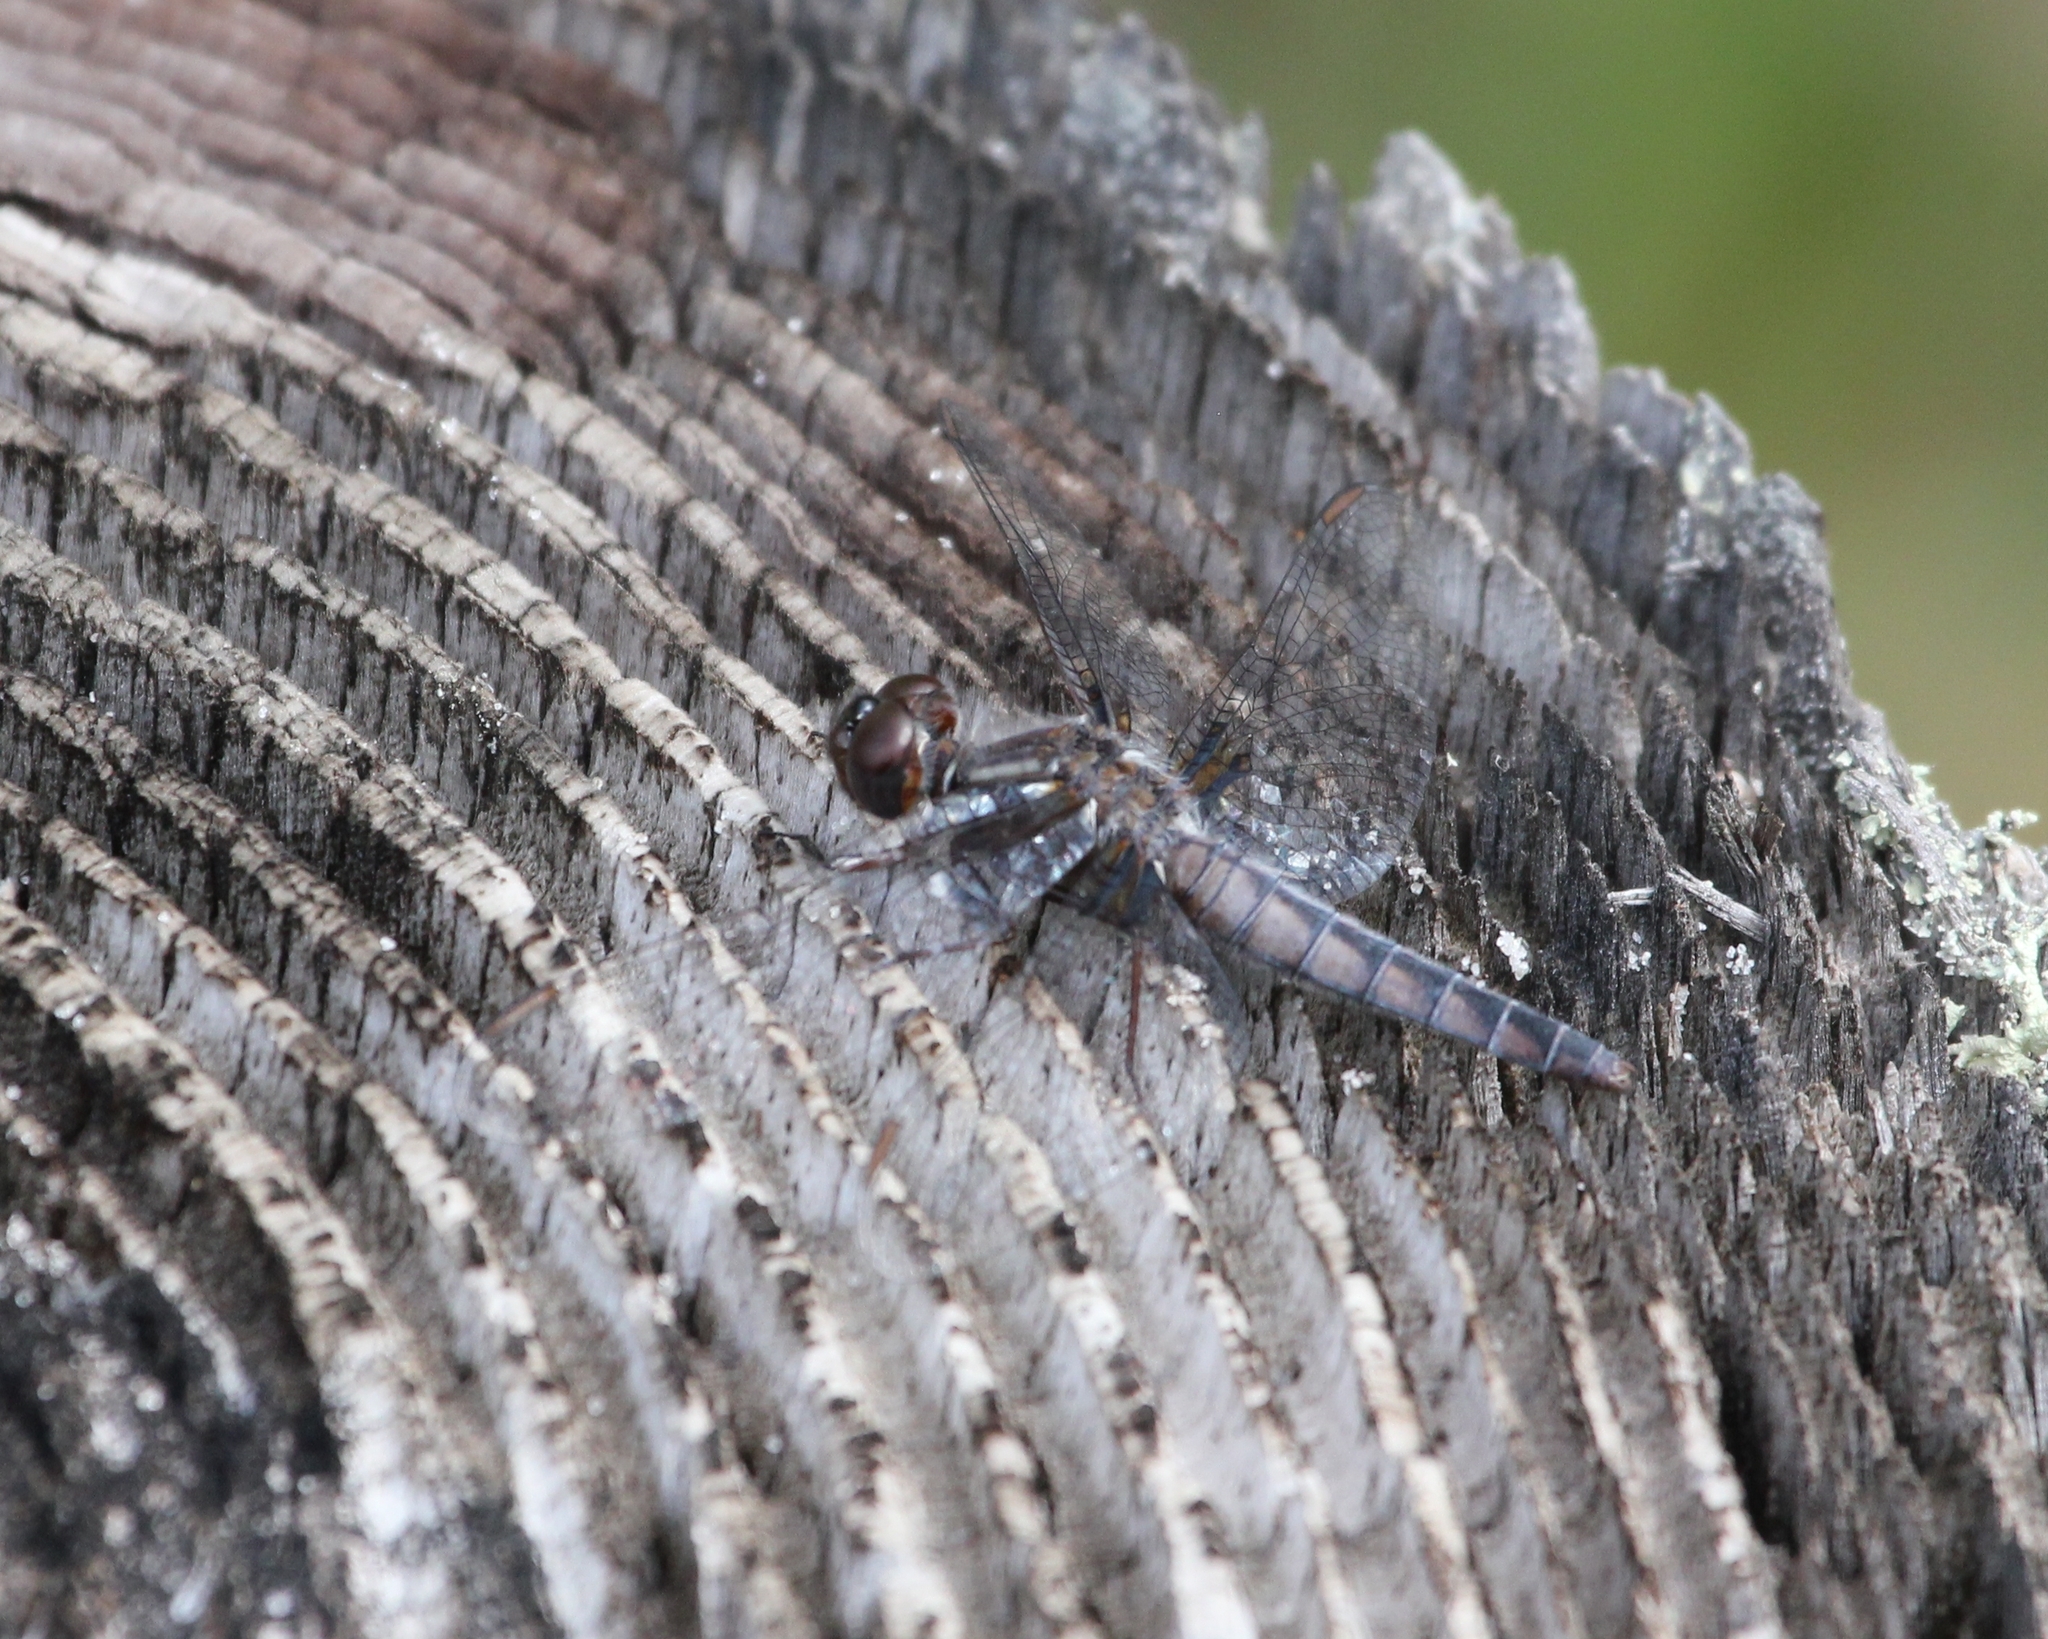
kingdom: Animalia
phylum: Arthropoda
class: Insecta
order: Odonata
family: Libellulidae
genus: Ladona
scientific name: Ladona deplanata
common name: Blue corporal
